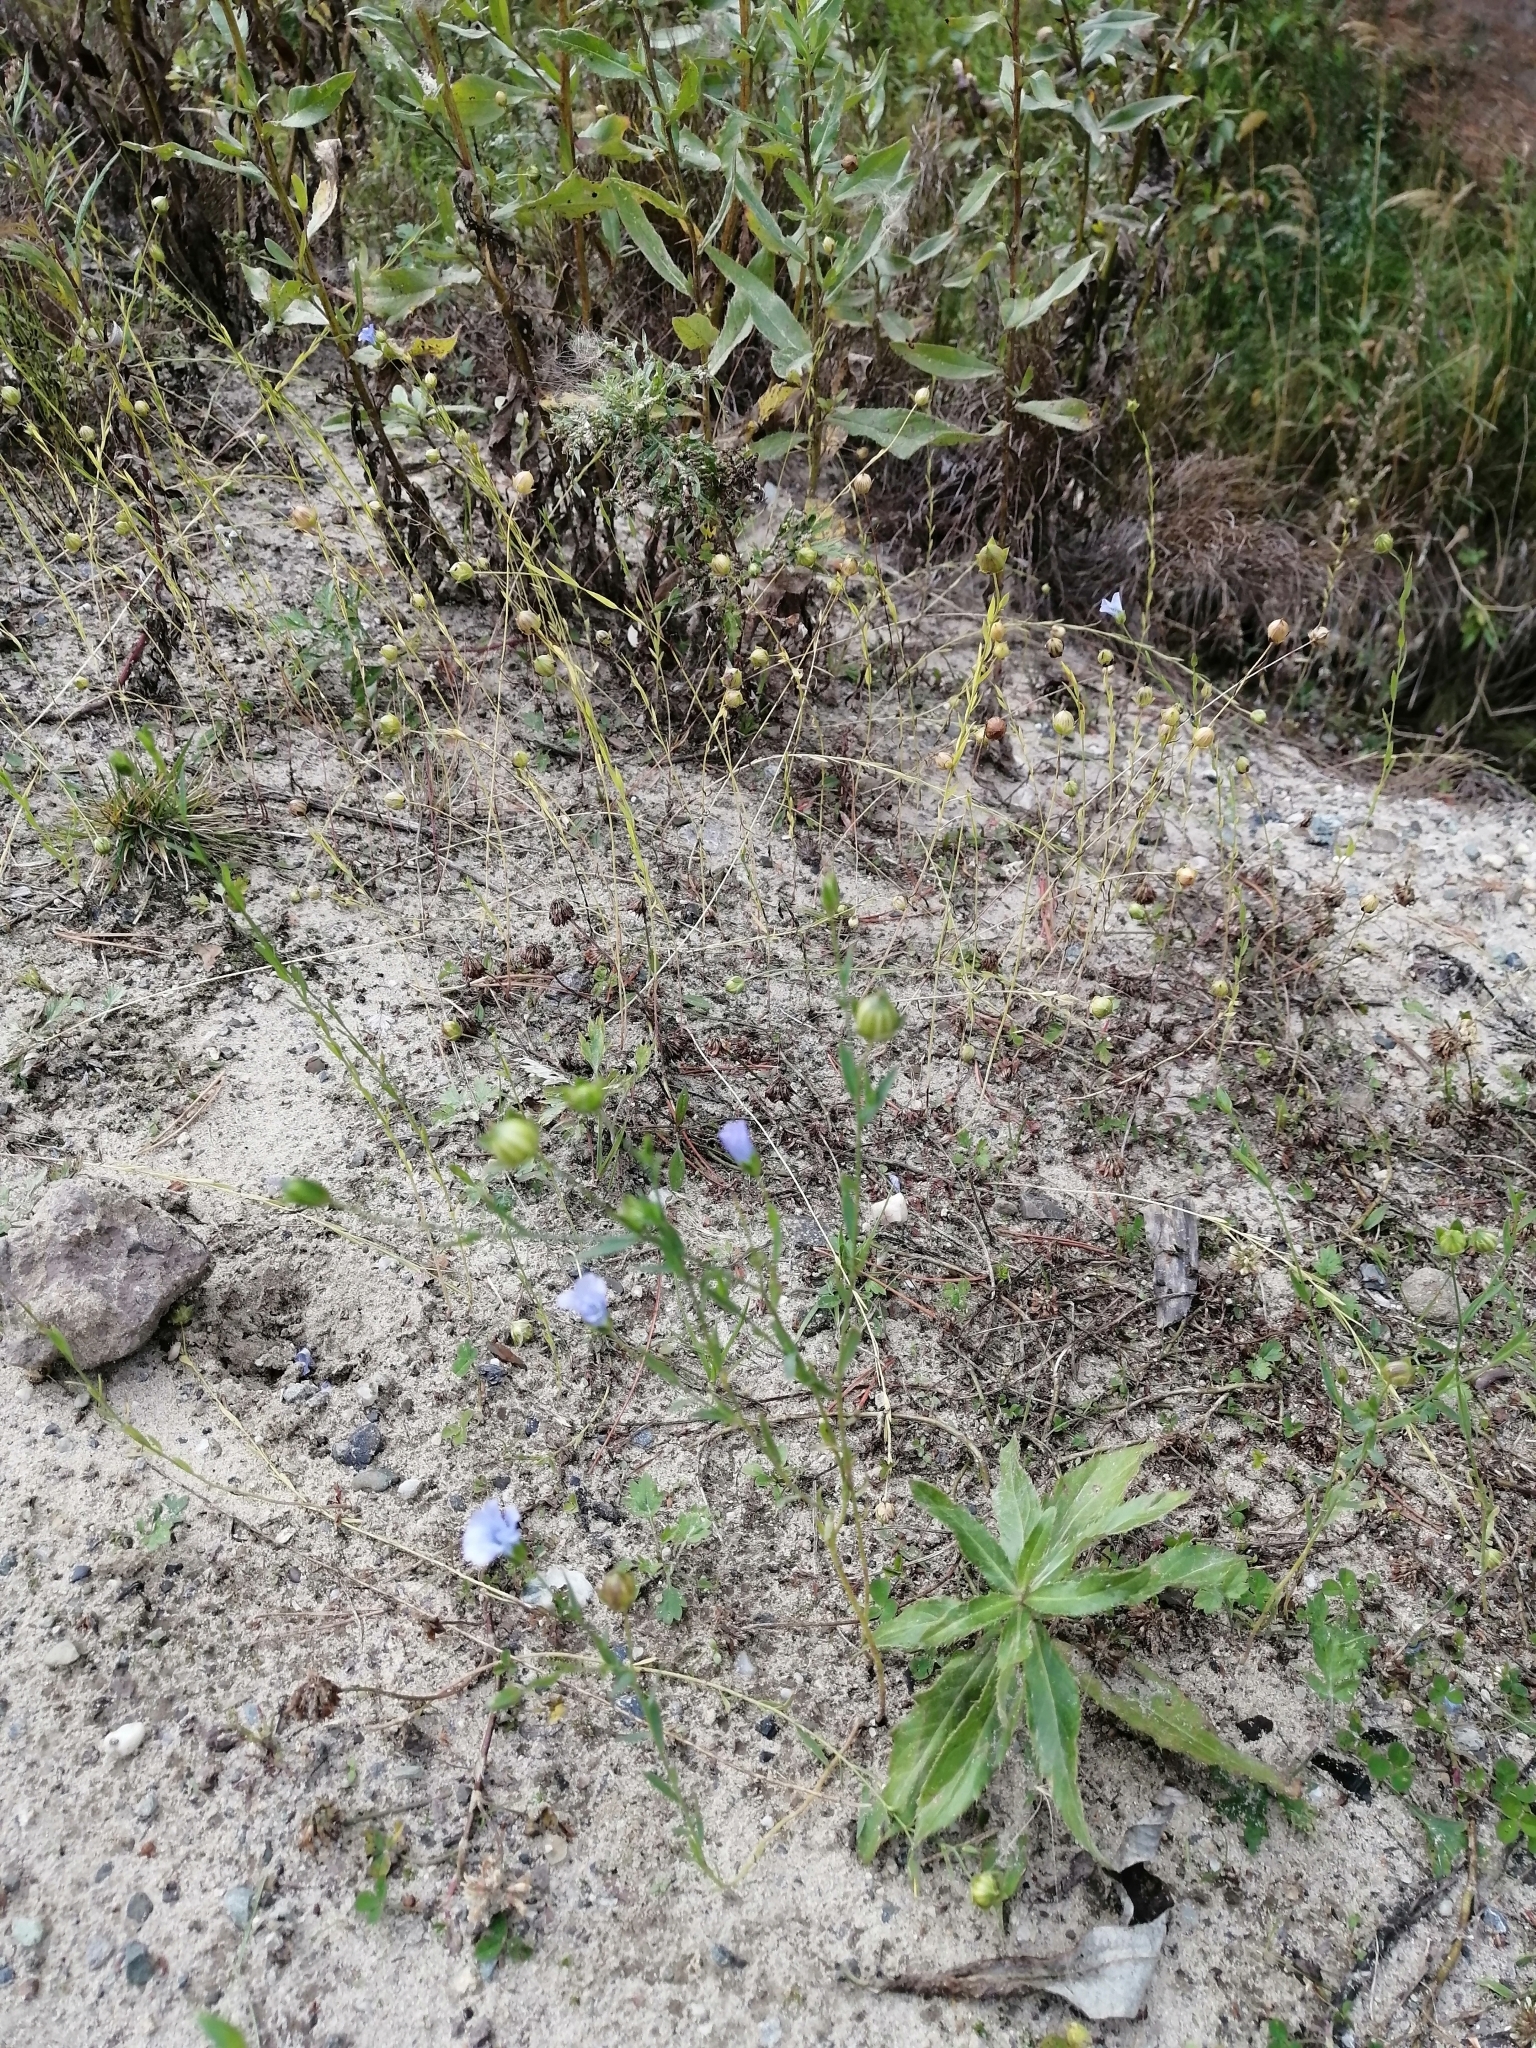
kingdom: Plantae
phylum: Tracheophyta
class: Magnoliopsida
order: Malpighiales
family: Linaceae
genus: Linum
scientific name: Linum usitatissimum
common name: Flax
